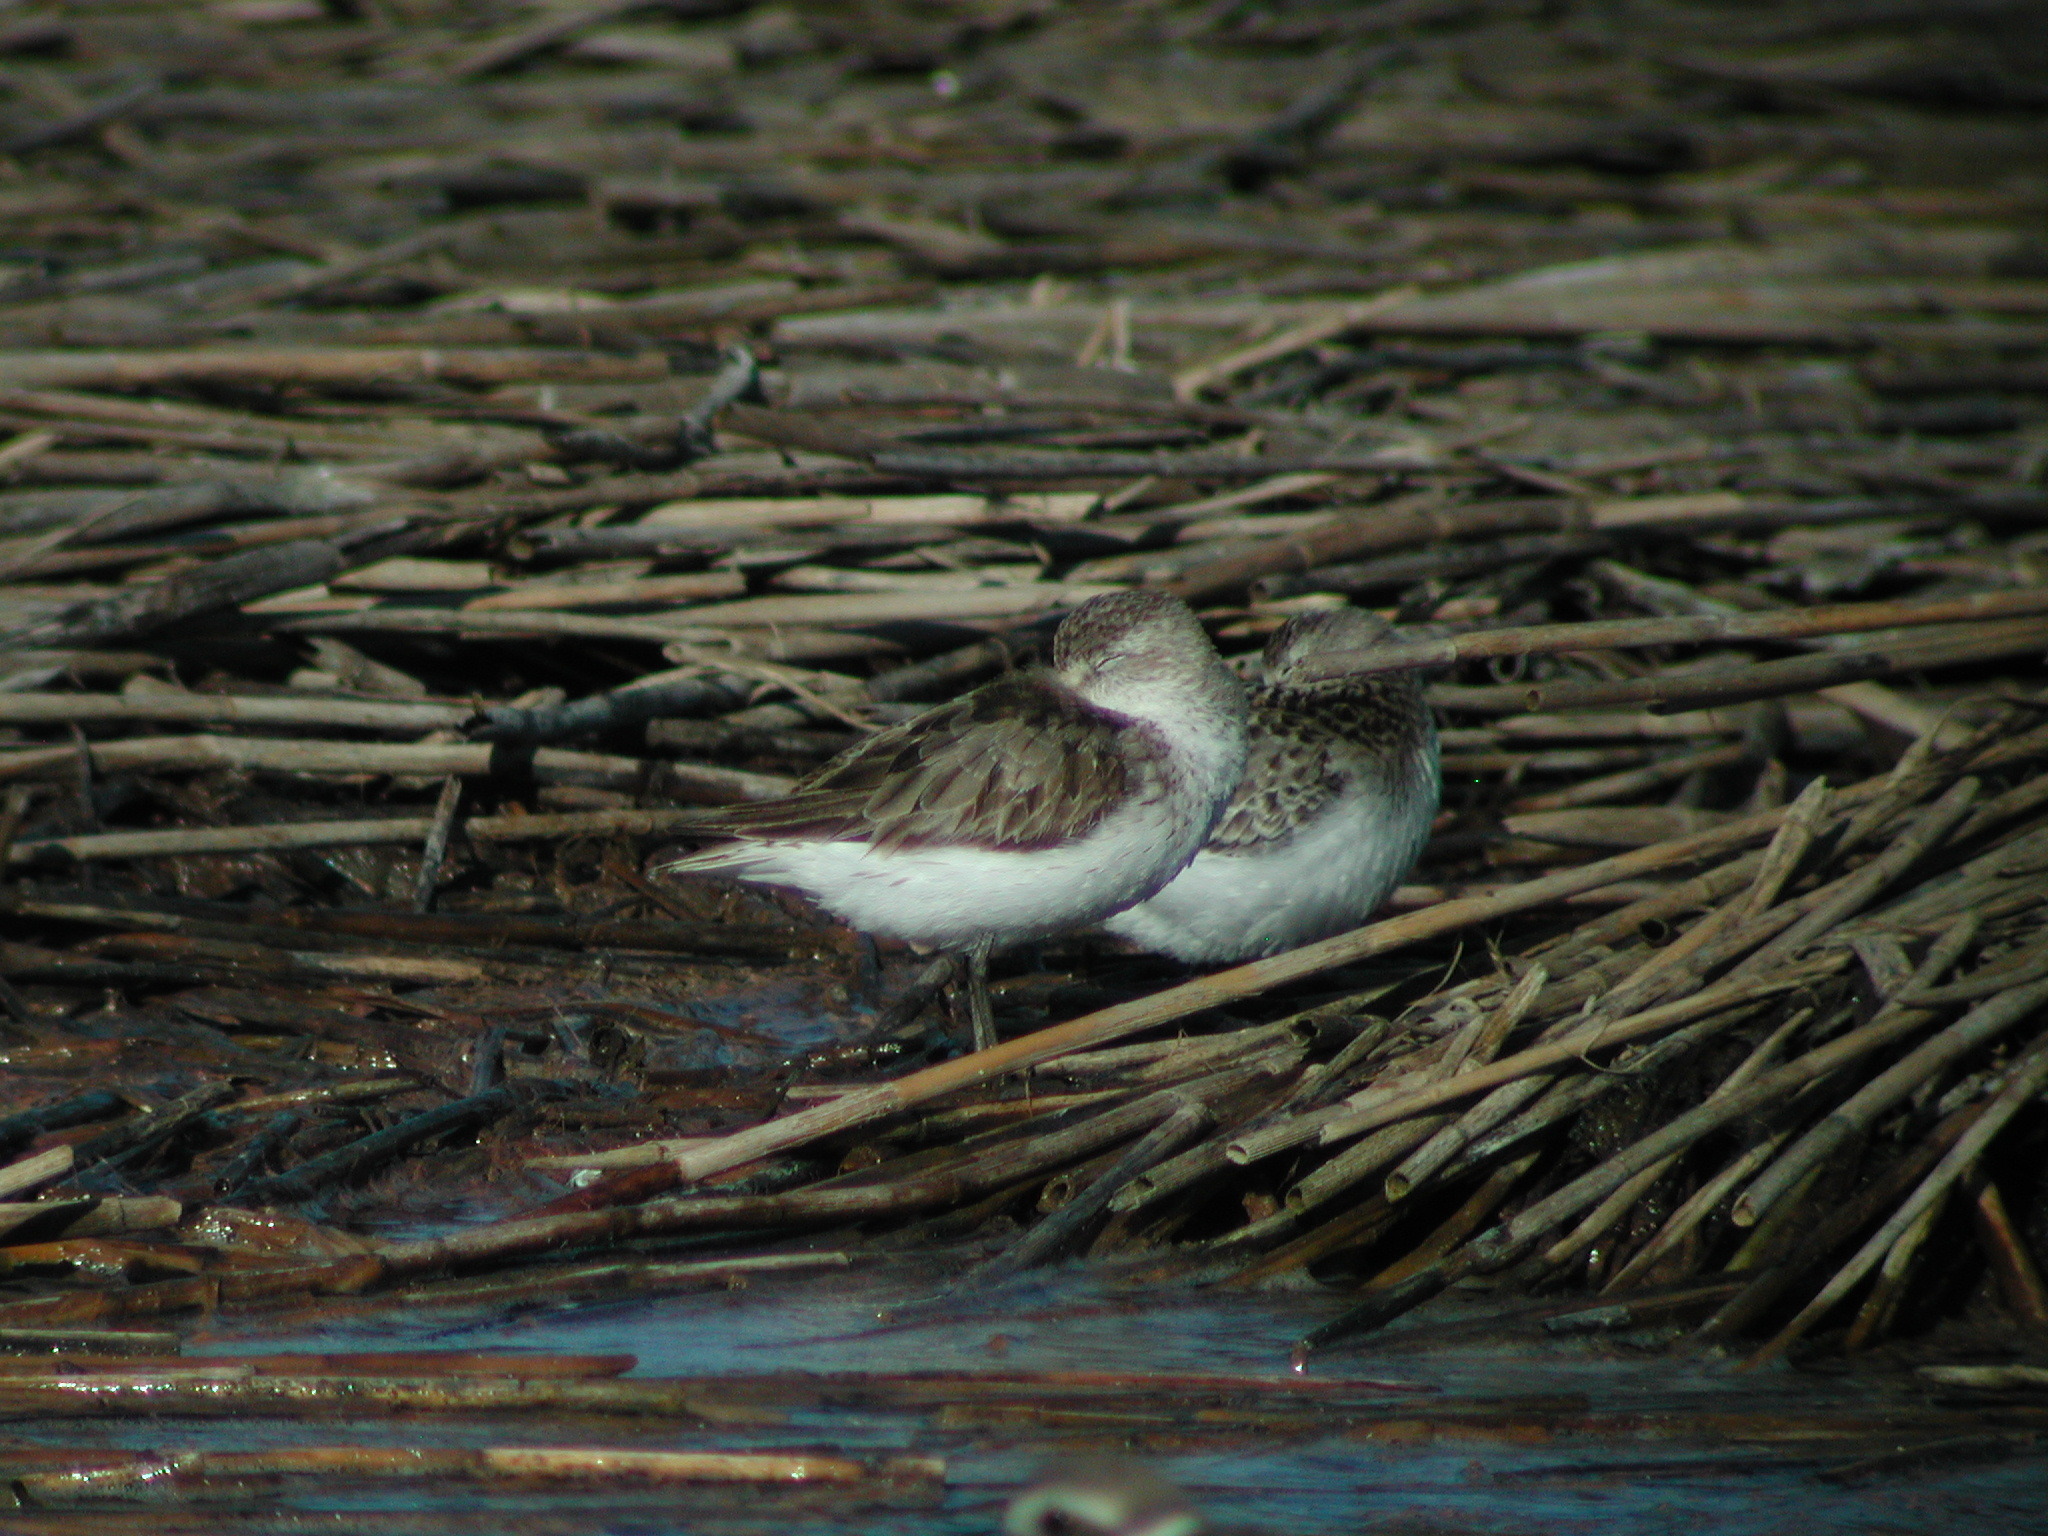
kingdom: Animalia
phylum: Chordata
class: Aves
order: Charadriiformes
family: Scolopacidae
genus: Calidris
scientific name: Calidris pusilla
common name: Semipalmated sandpiper
